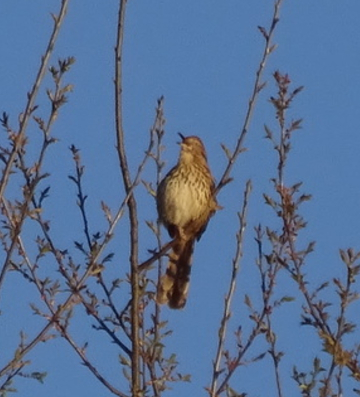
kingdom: Animalia
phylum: Chordata
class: Aves
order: Passeriformes
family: Mimidae
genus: Toxostoma
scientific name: Toxostoma rufum
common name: Brown thrasher
